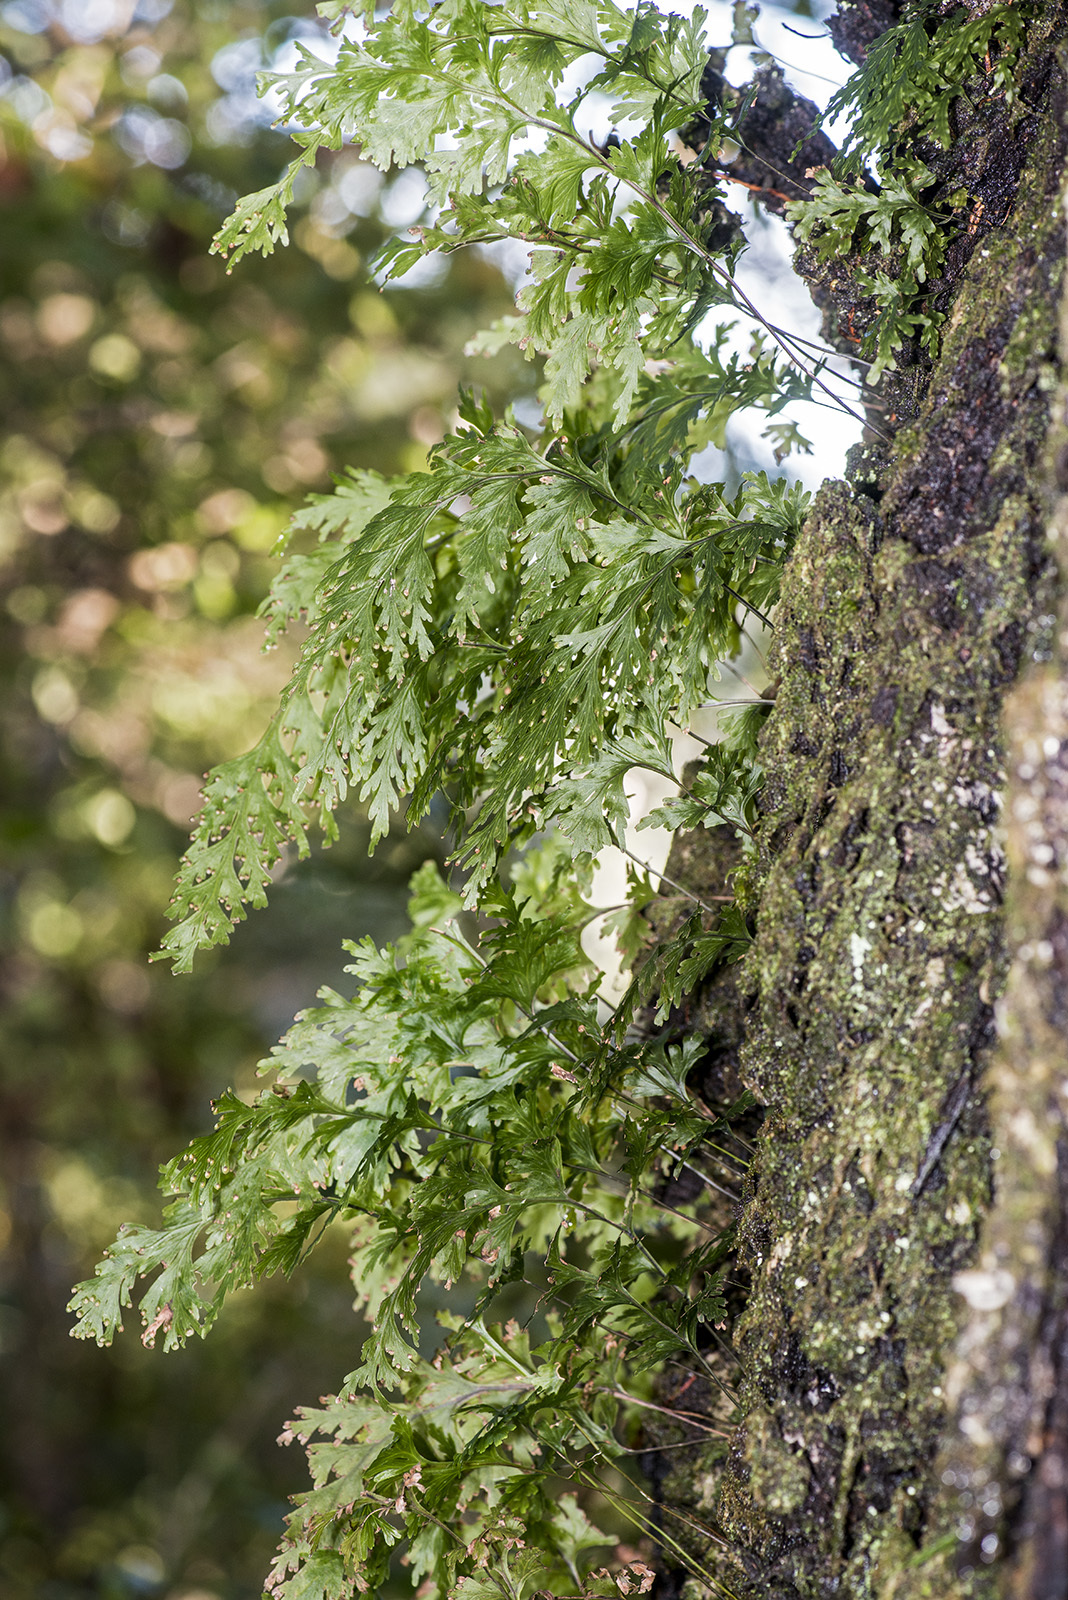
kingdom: Plantae
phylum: Tracheophyta
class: Polypodiopsida
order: Hymenophyllales
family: Hymenophyllaceae
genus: Hymenophyllum
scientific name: Hymenophyllum dilatatum
